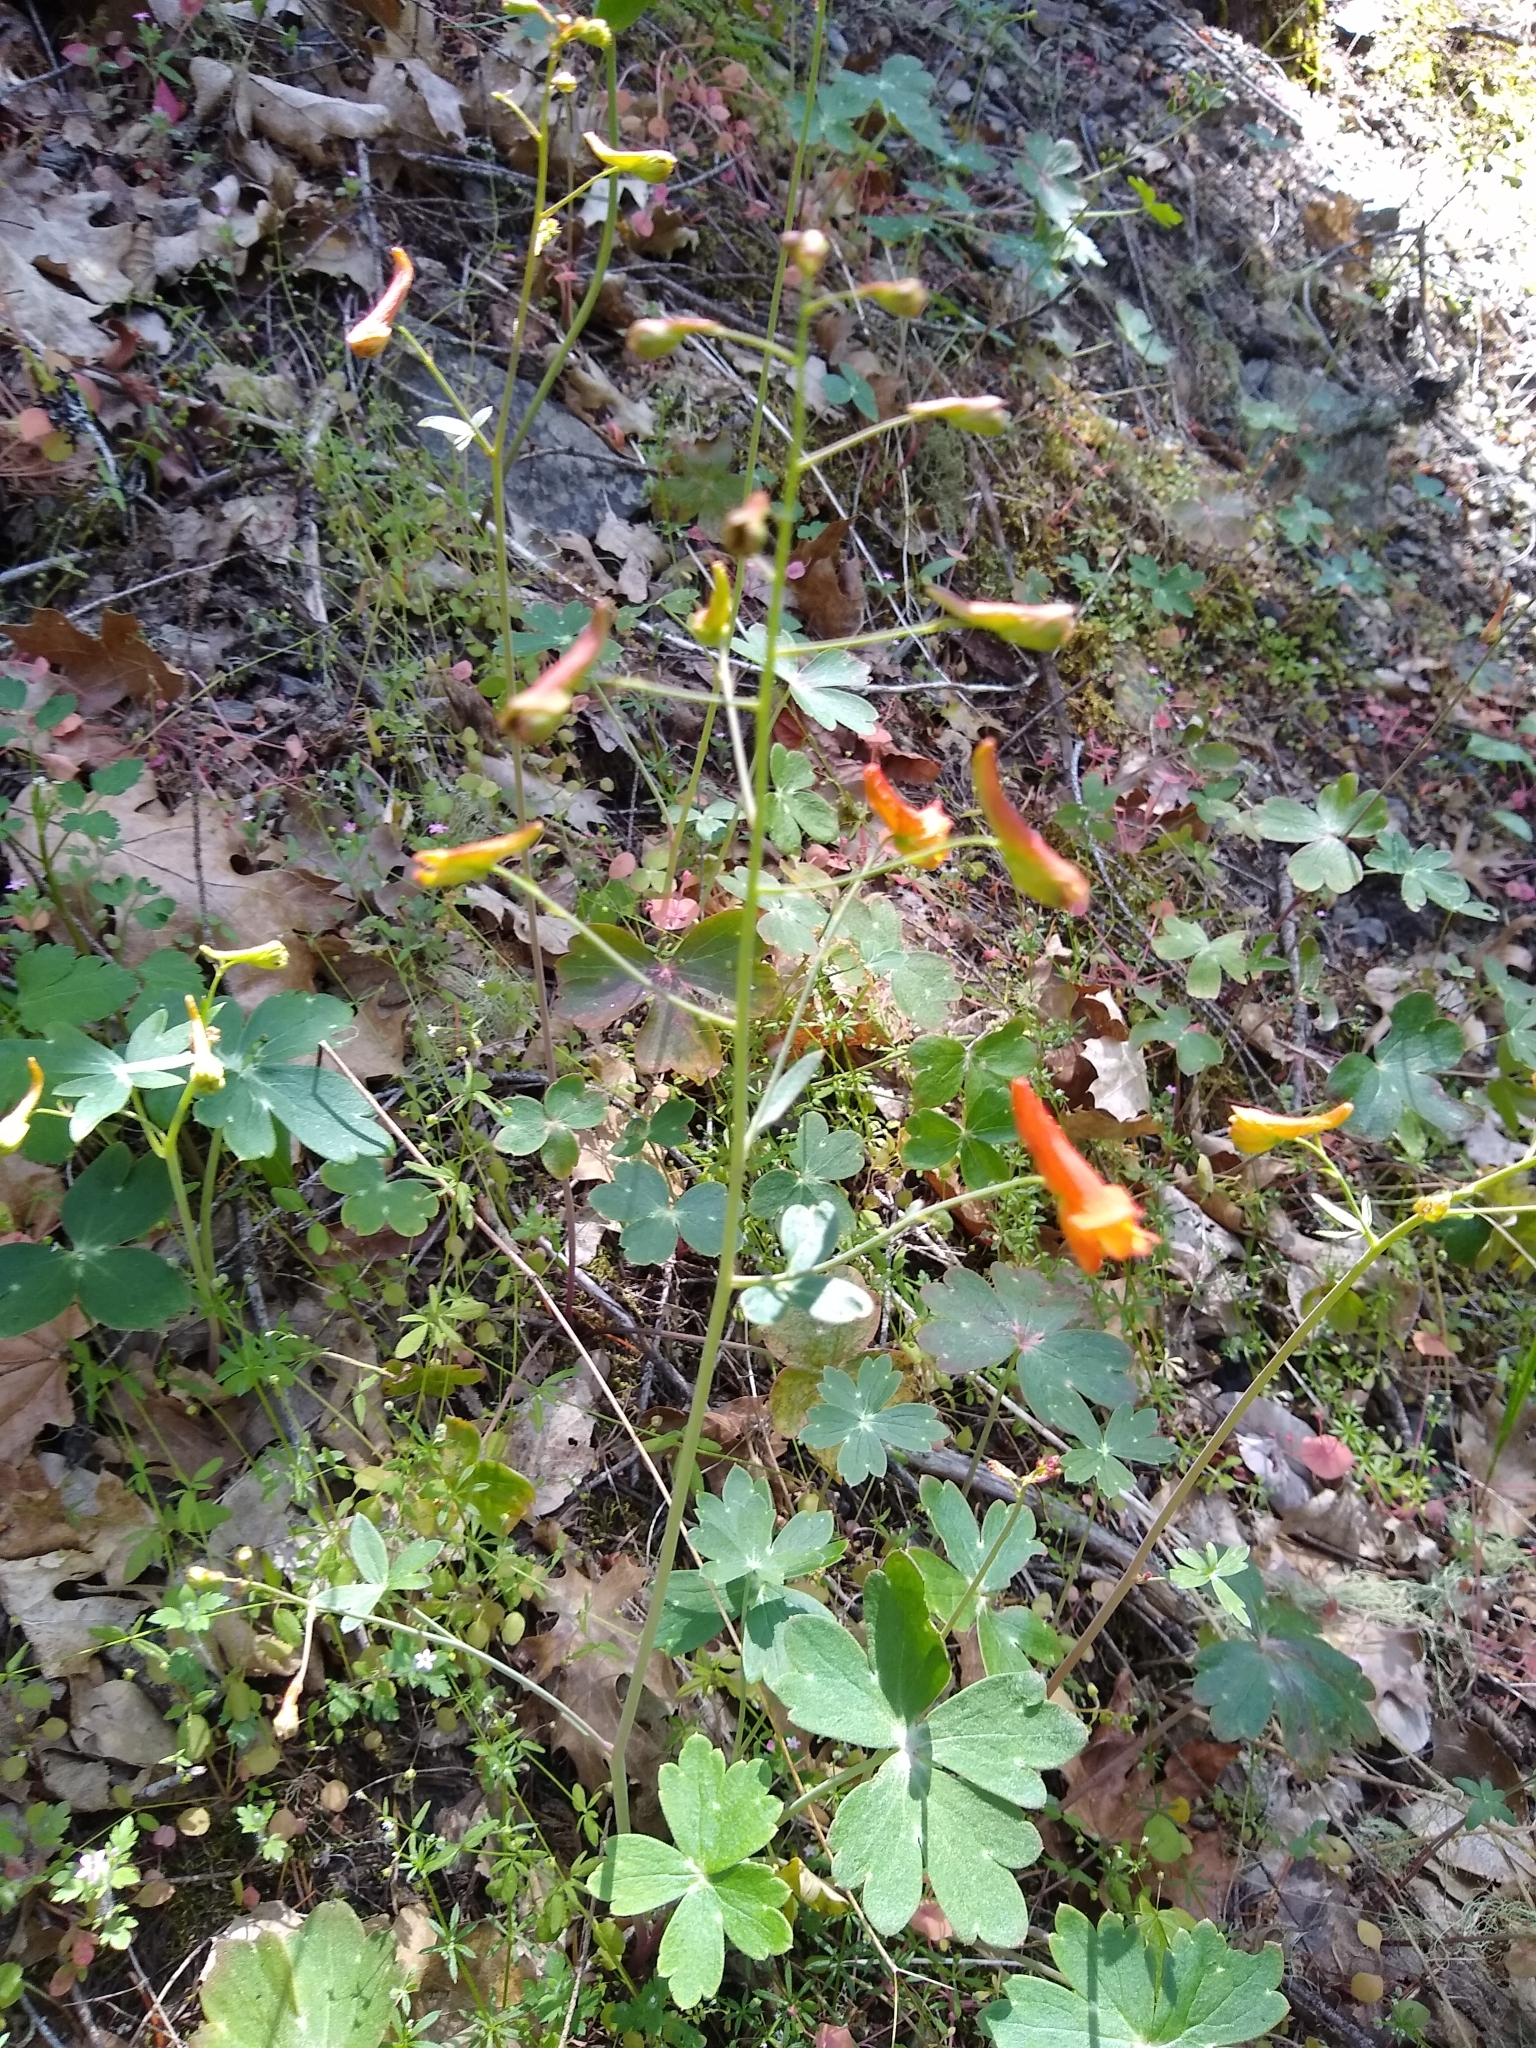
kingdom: Plantae
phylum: Tracheophyta
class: Magnoliopsida
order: Ranunculales
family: Ranunculaceae
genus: Delphinium
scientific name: Delphinium nudicaule
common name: Red larkspur
